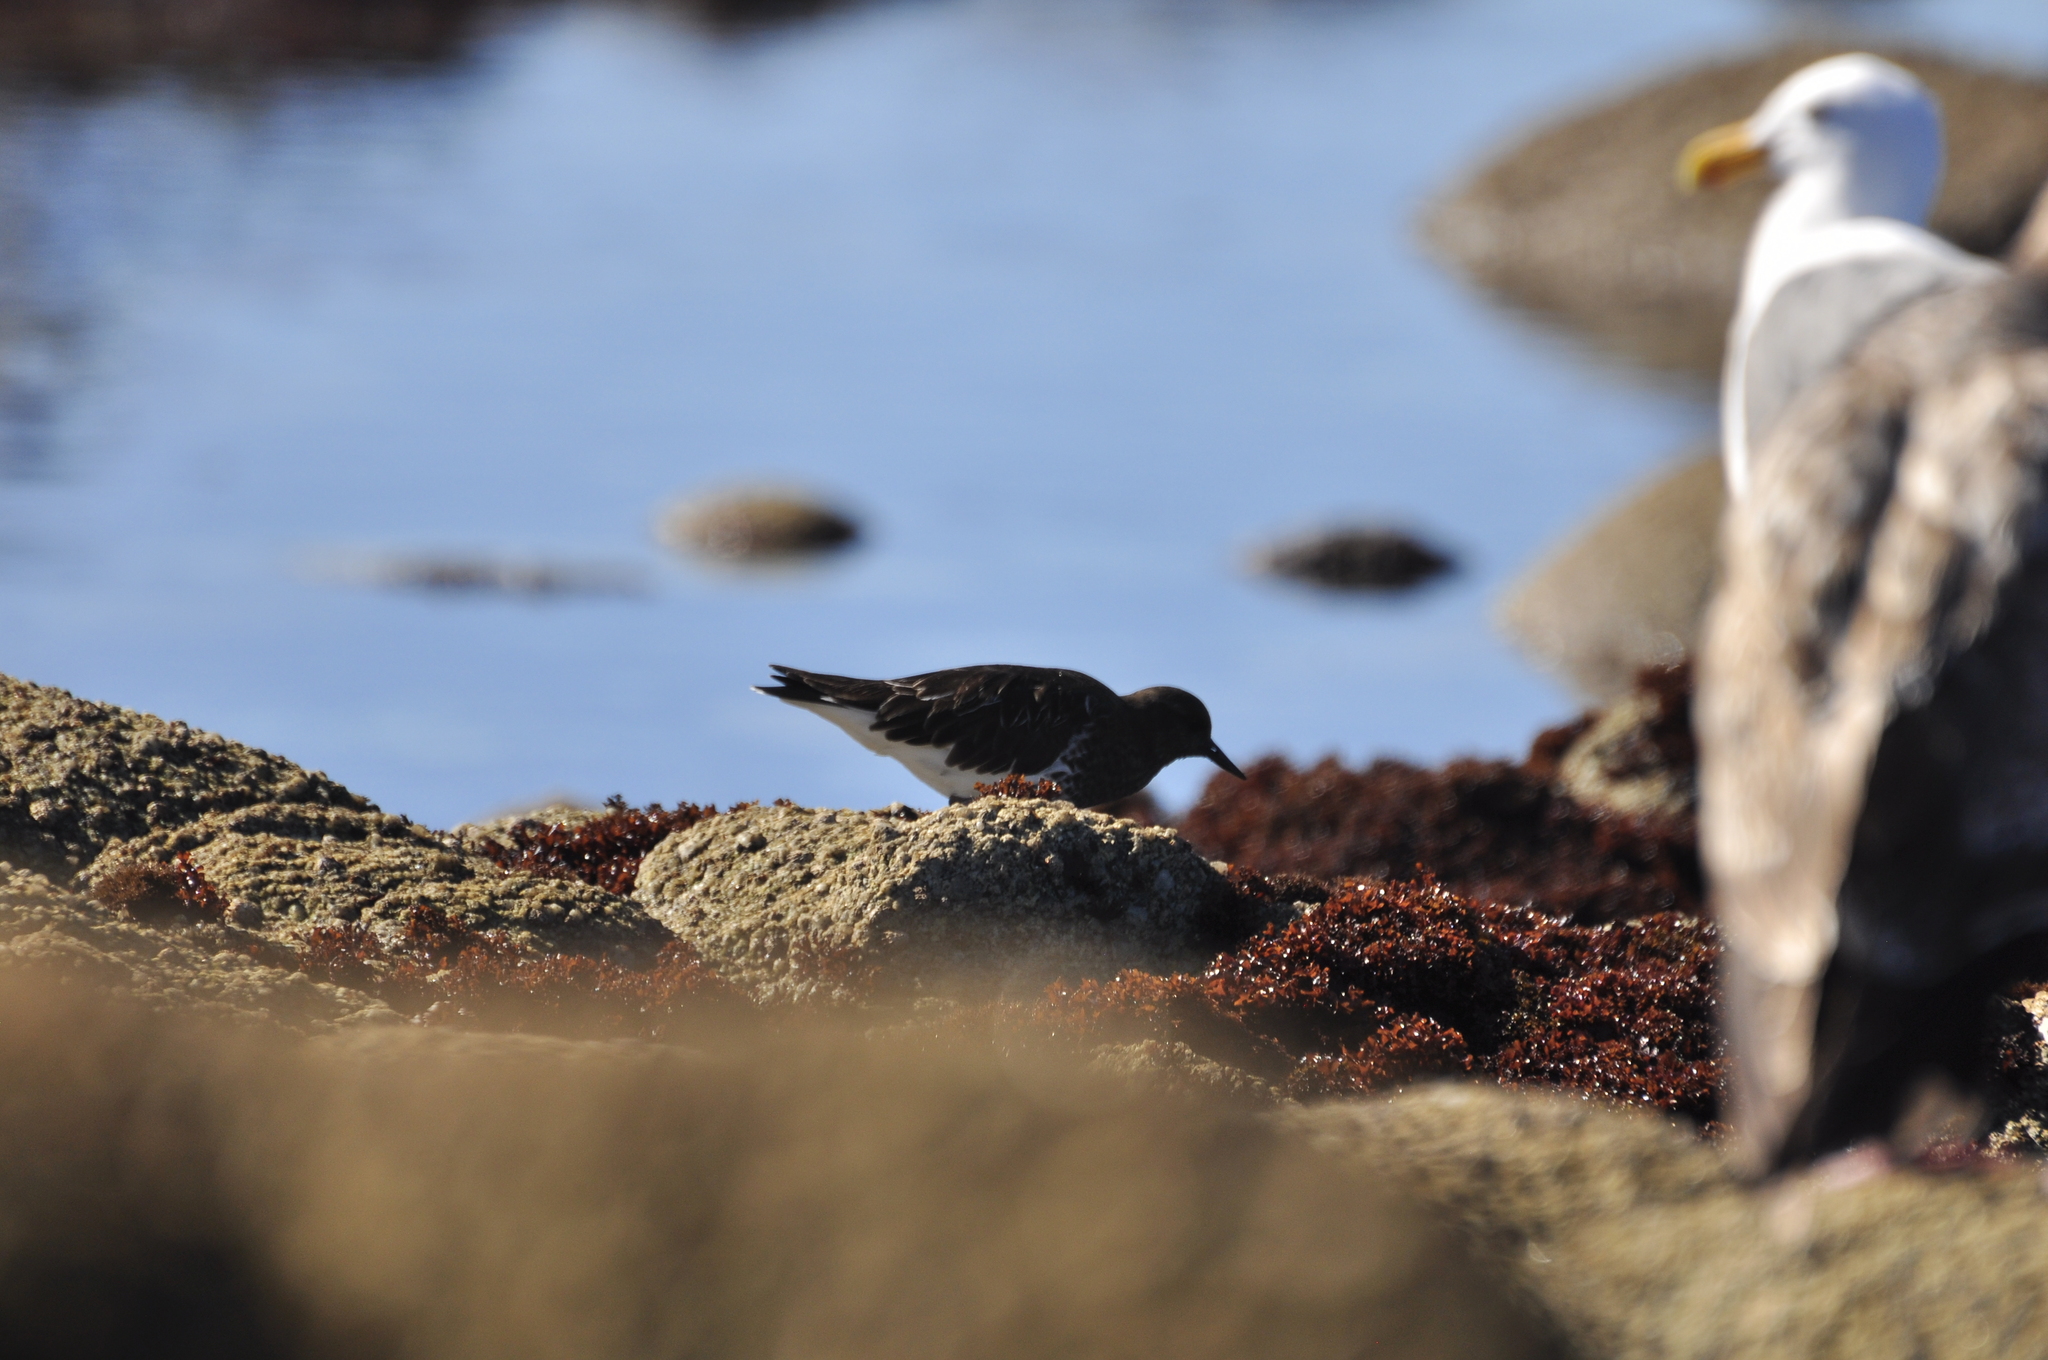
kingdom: Animalia
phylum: Chordata
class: Aves
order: Charadriiformes
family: Scolopacidae
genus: Arenaria
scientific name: Arenaria melanocephala
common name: Black turnstone
